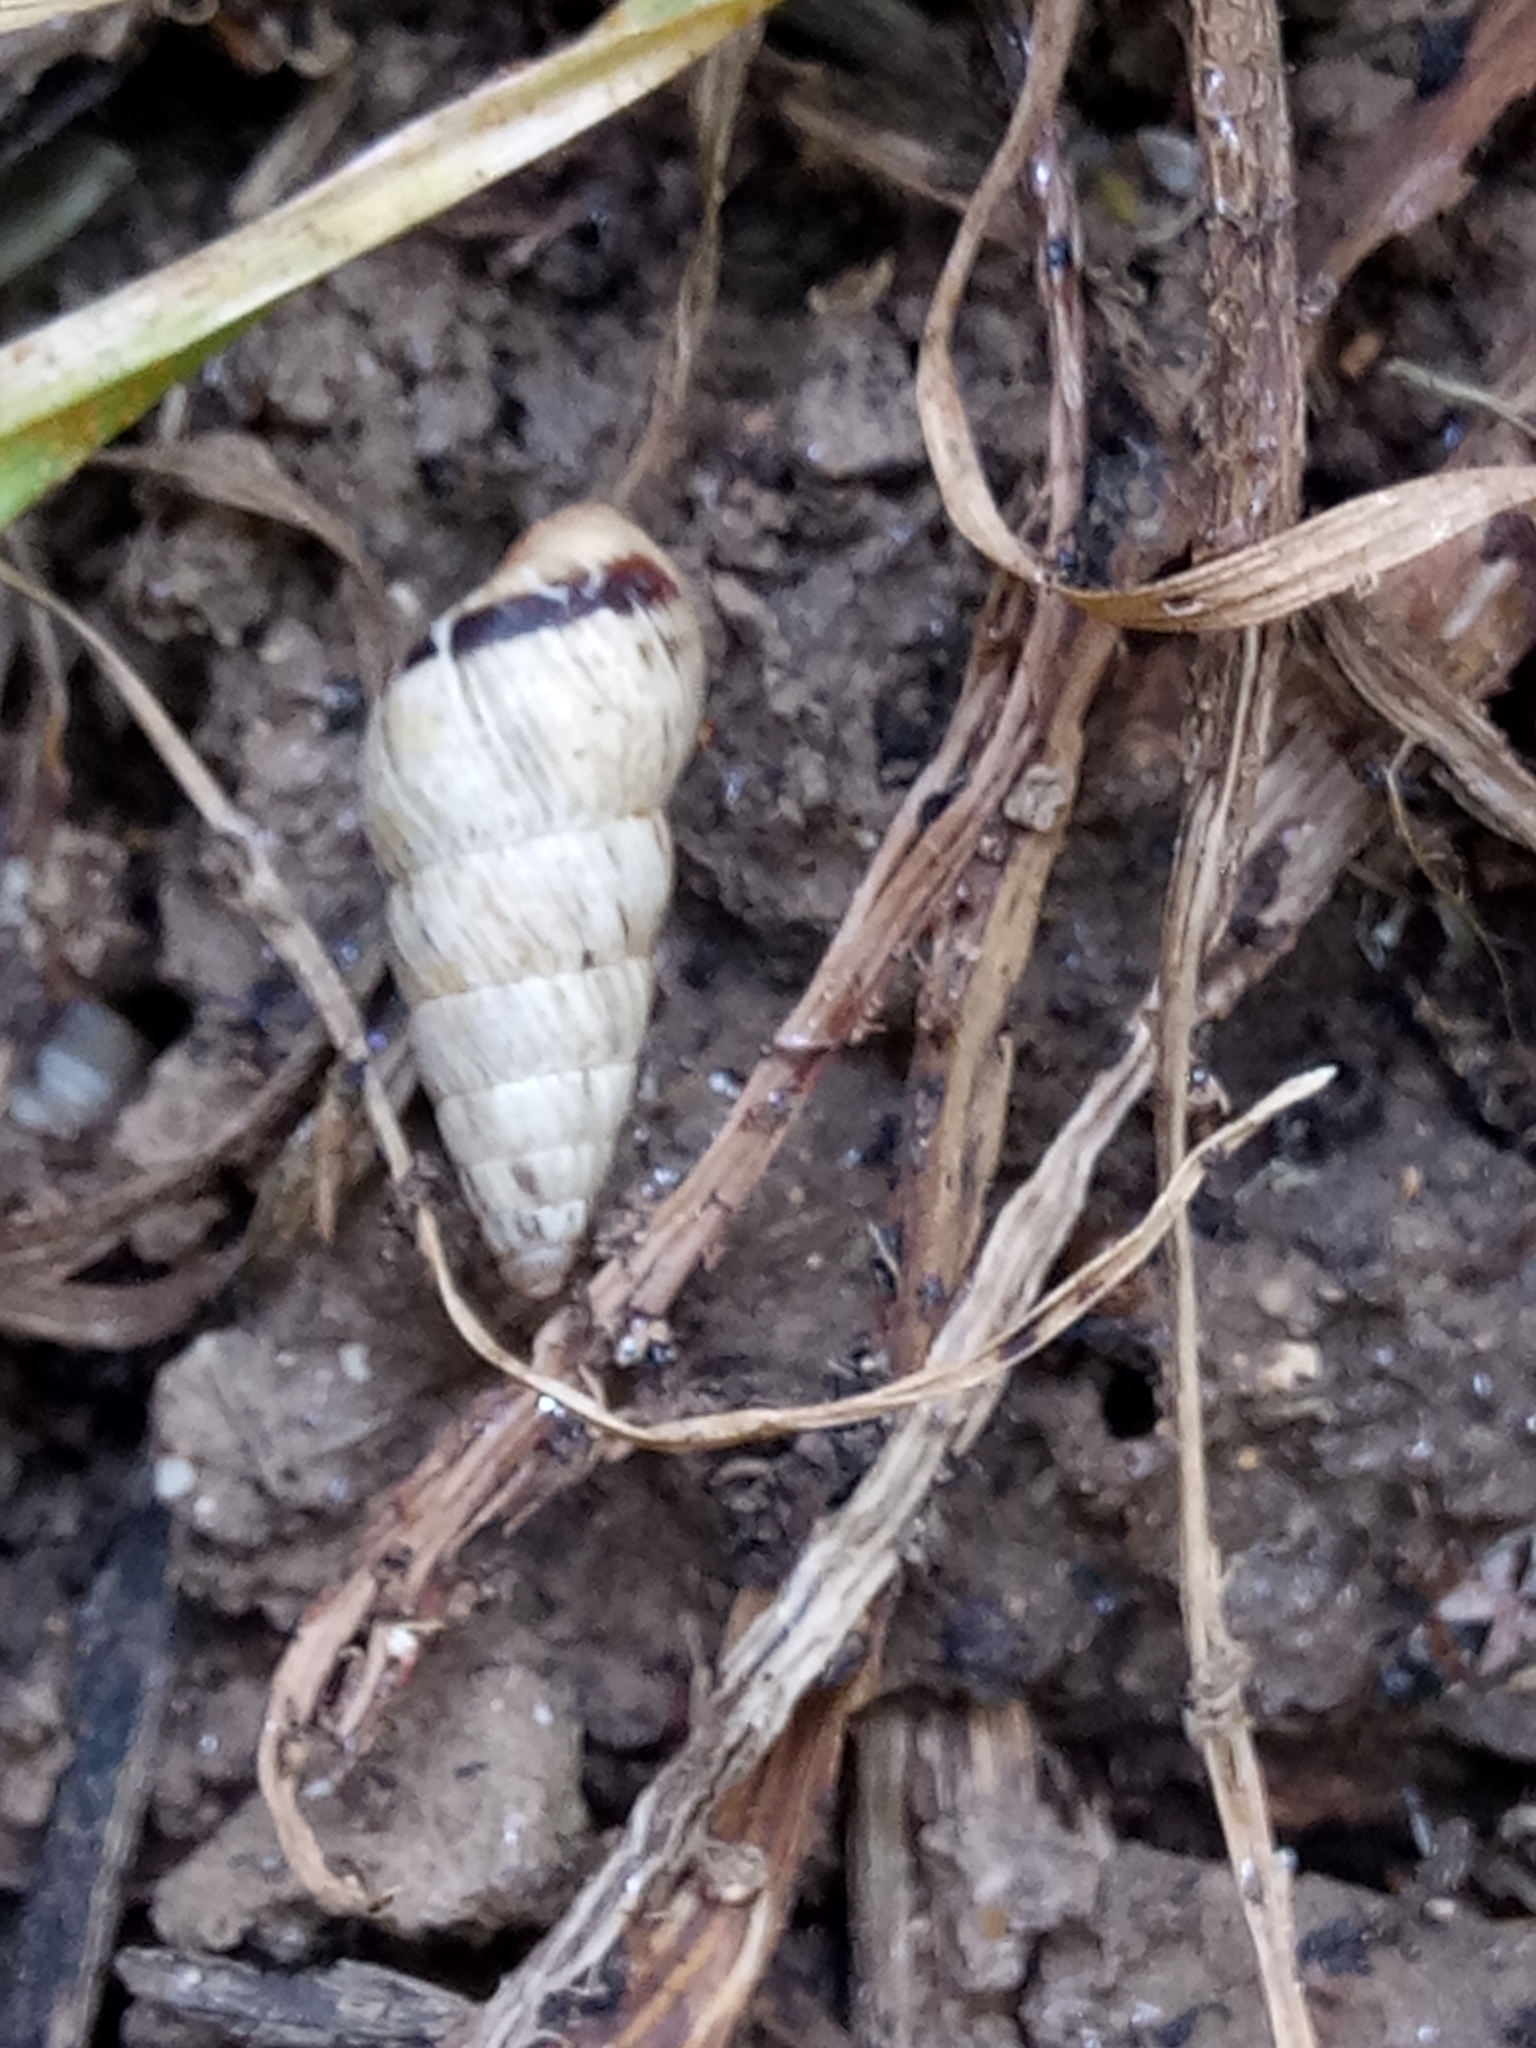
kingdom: Animalia
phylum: Mollusca
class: Gastropoda
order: Stylommatophora
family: Geomitridae
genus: Cochlicella
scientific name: Cochlicella acuta
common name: Pointed snail
